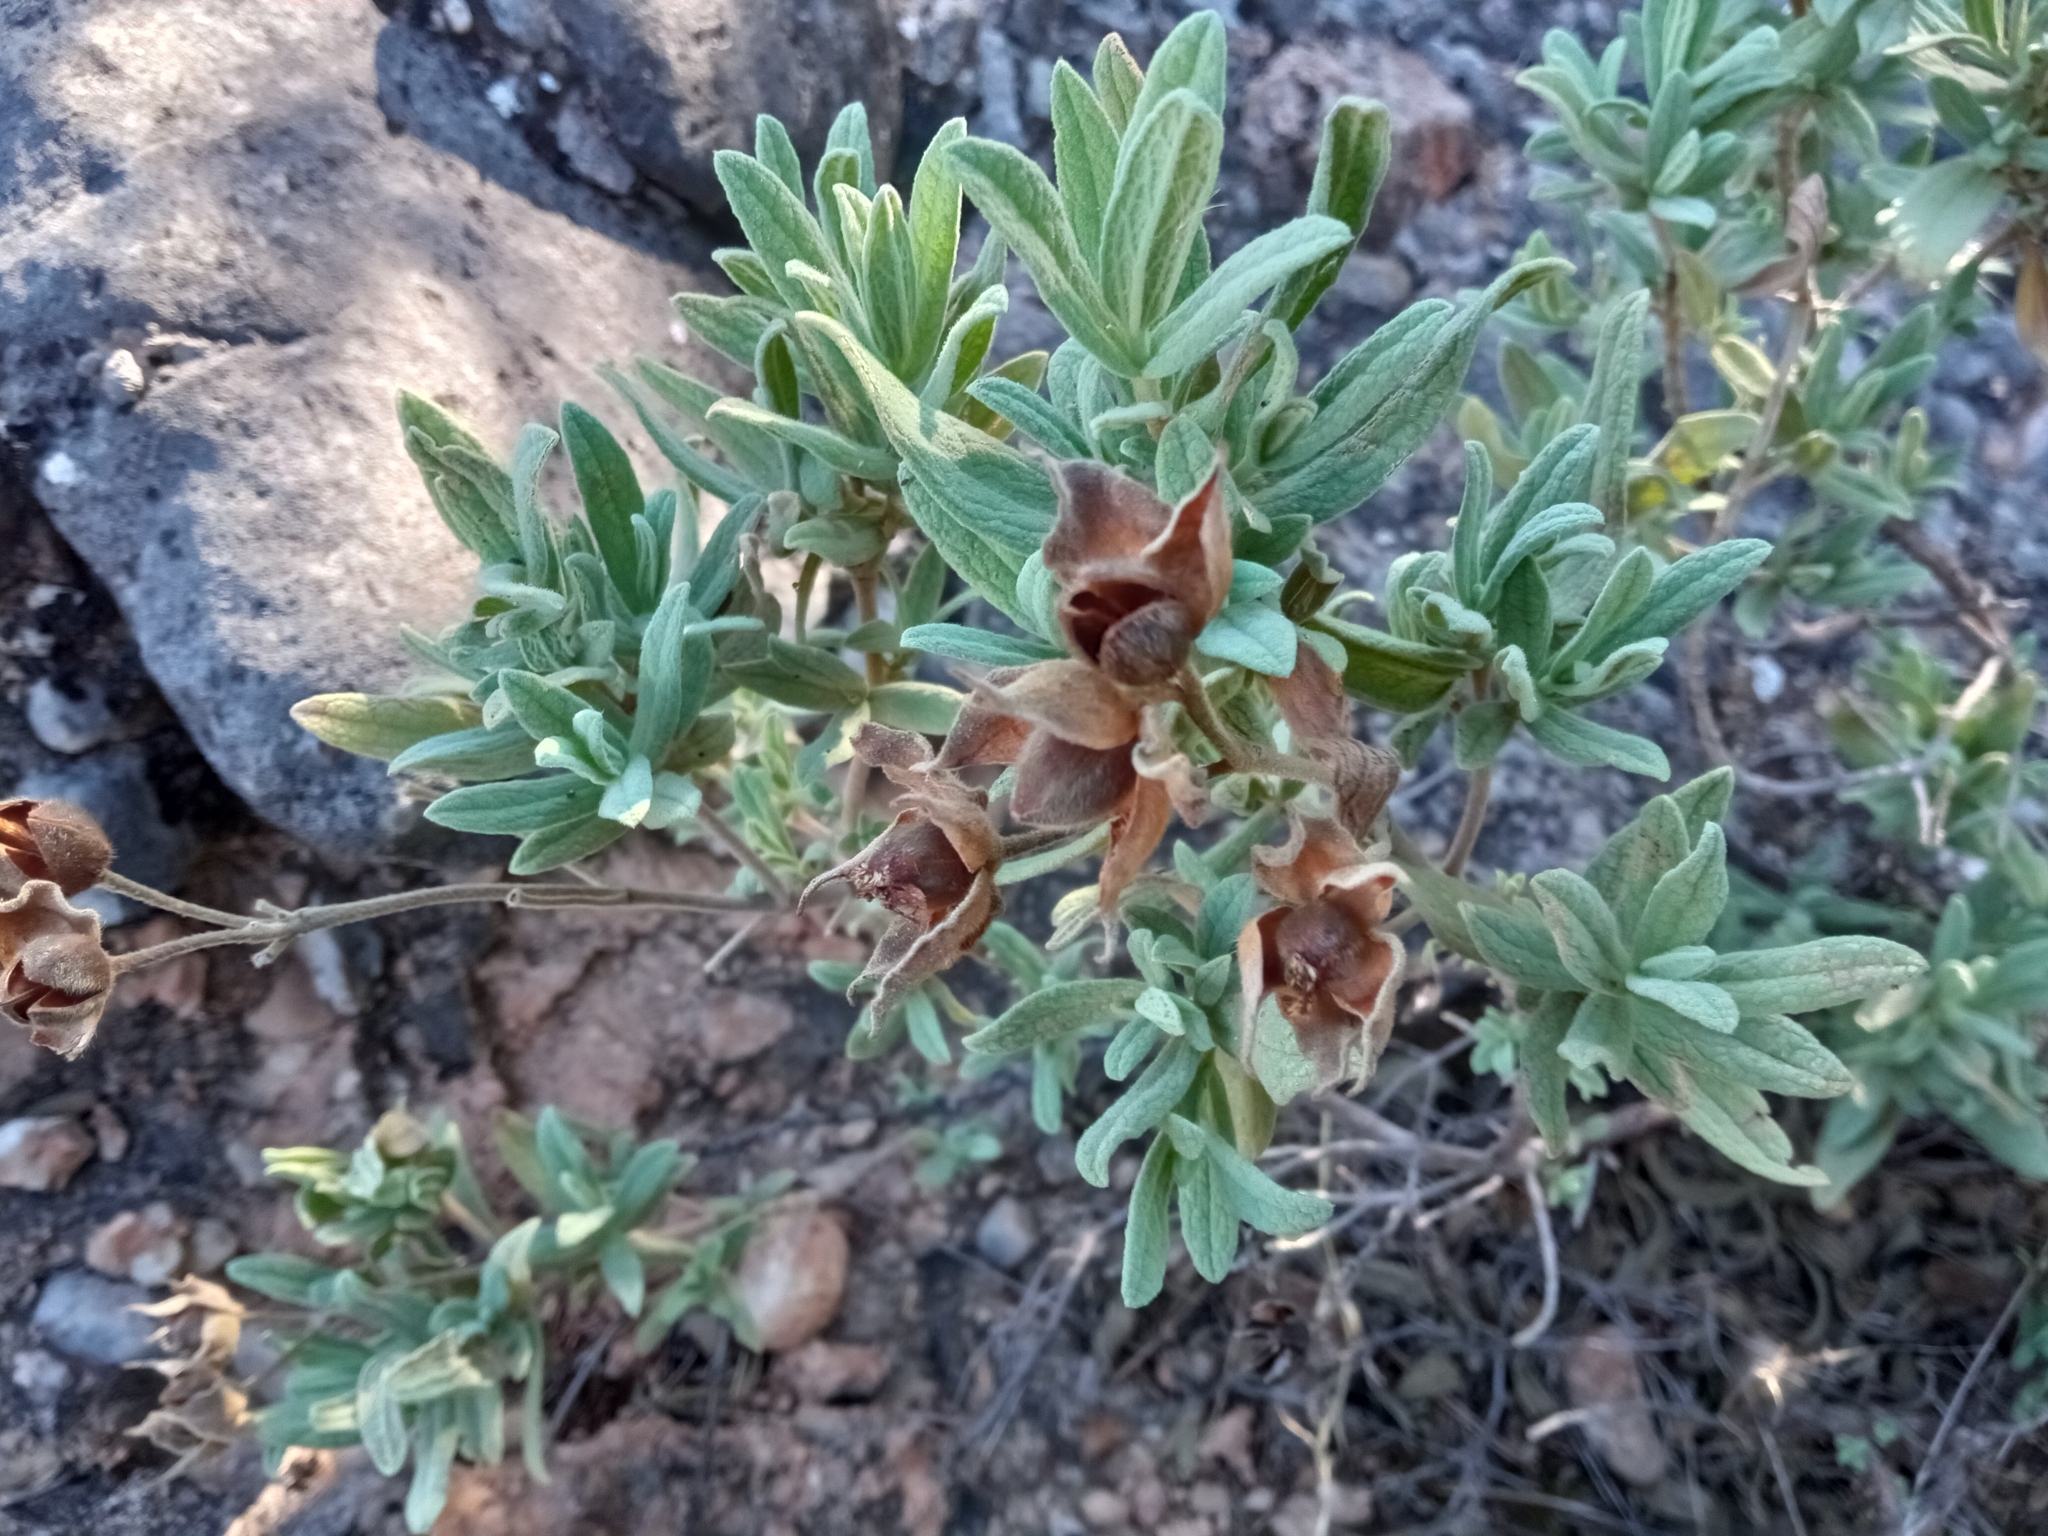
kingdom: Plantae
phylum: Tracheophyta
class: Magnoliopsida
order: Malvales
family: Cistaceae
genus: Cistus
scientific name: Cistus albidus
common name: White-leaf rock-rose
